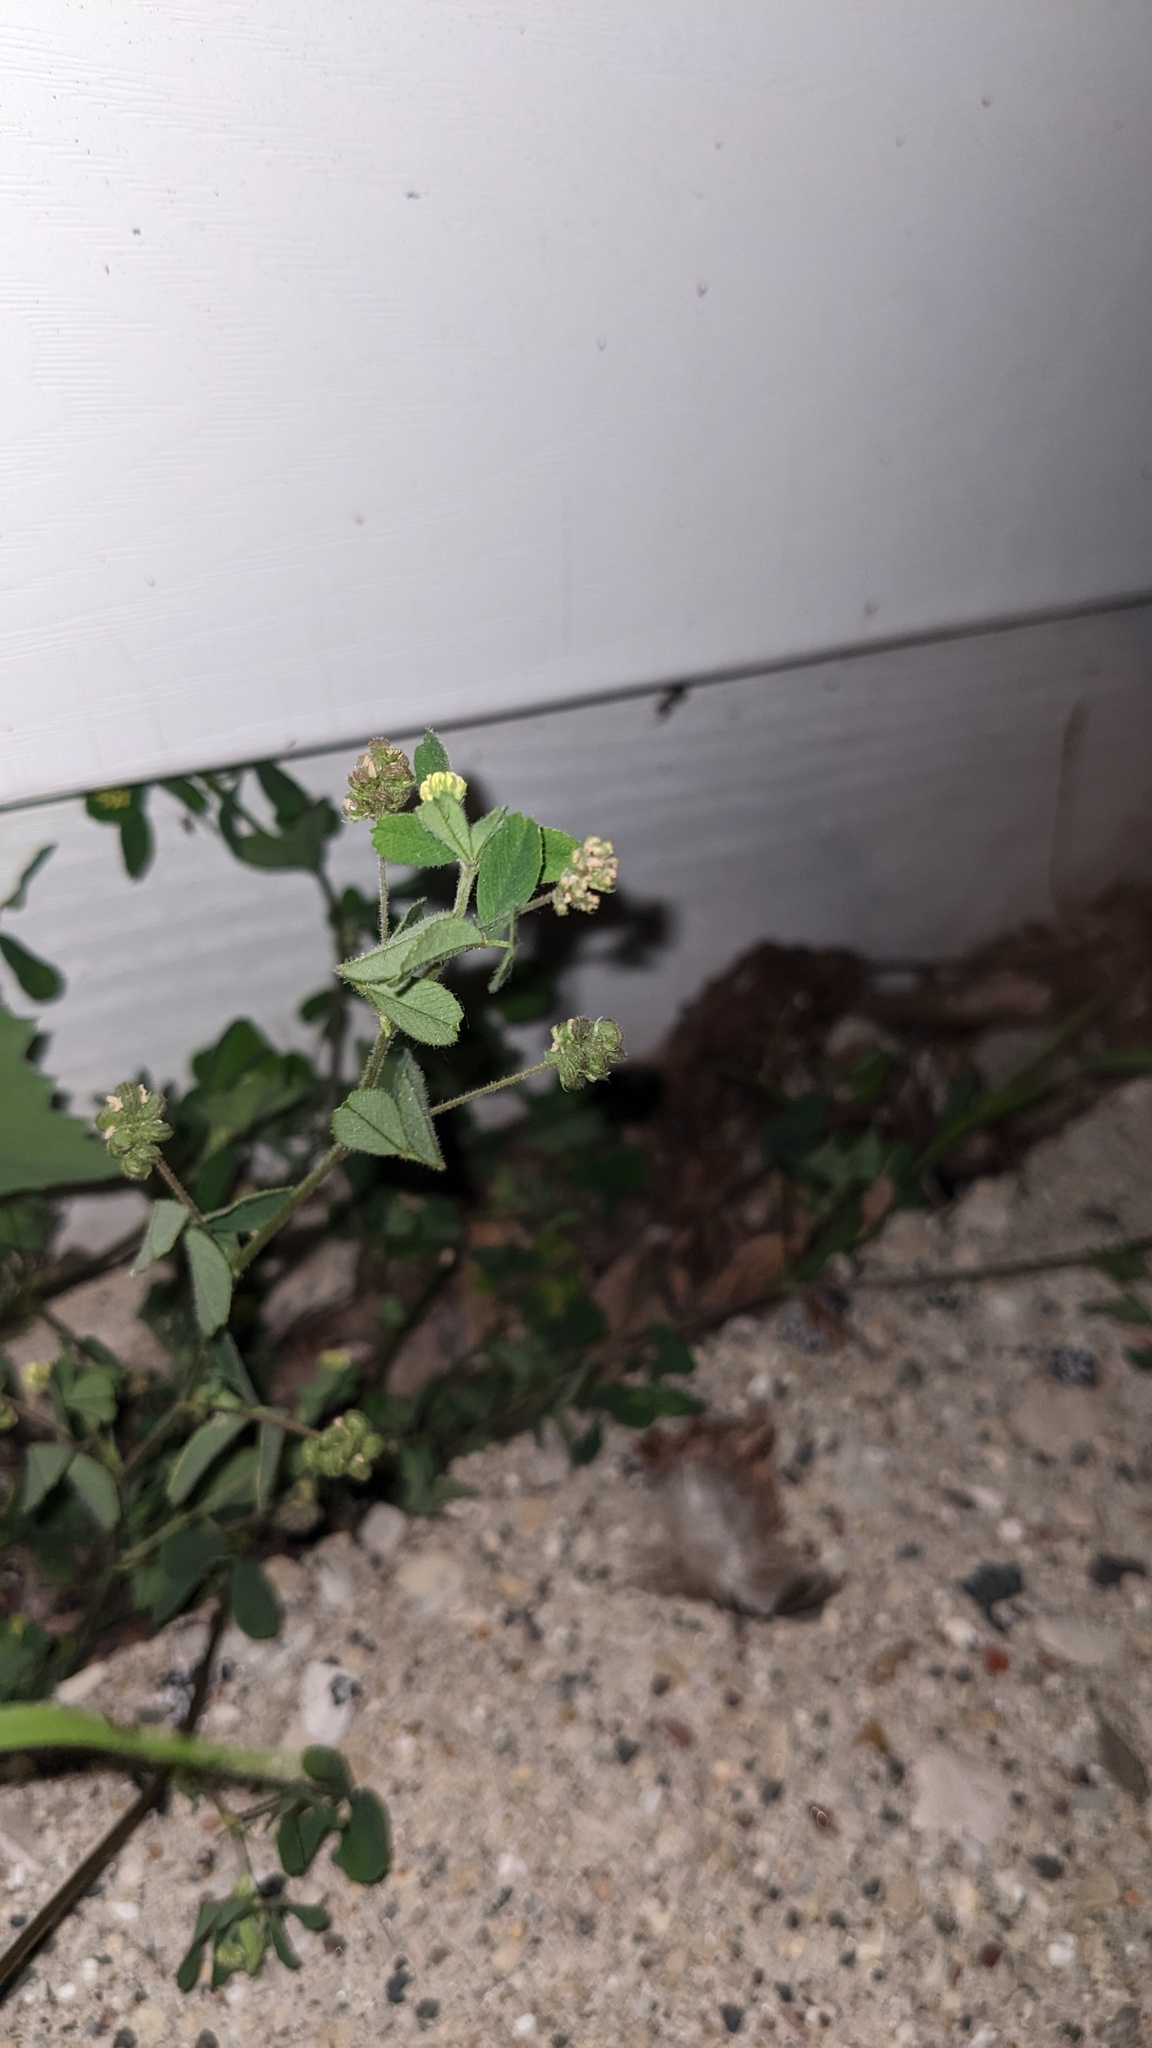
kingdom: Plantae
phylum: Tracheophyta
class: Magnoliopsida
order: Fabales
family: Fabaceae
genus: Medicago
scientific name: Medicago lupulina
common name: Black medick
